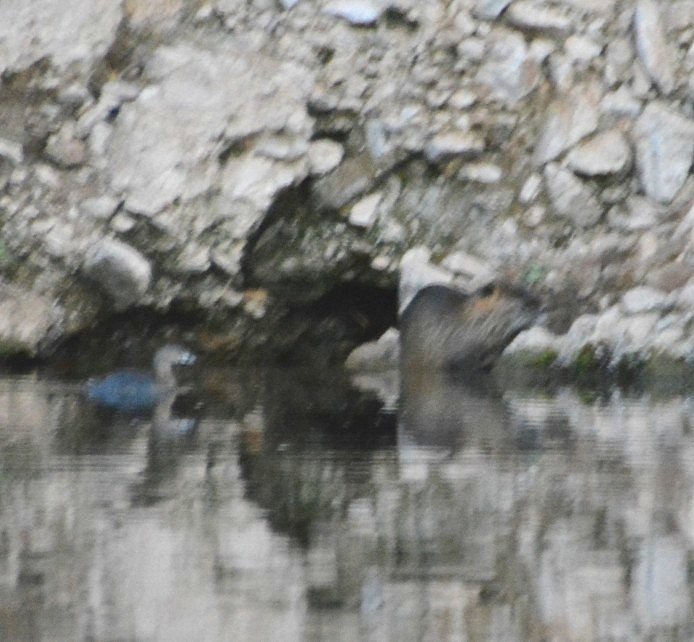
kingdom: Animalia
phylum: Chordata
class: Mammalia
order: Rodentia
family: Myocastoridae
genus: Myocastor
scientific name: Myocastor coypus
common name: Coypu
